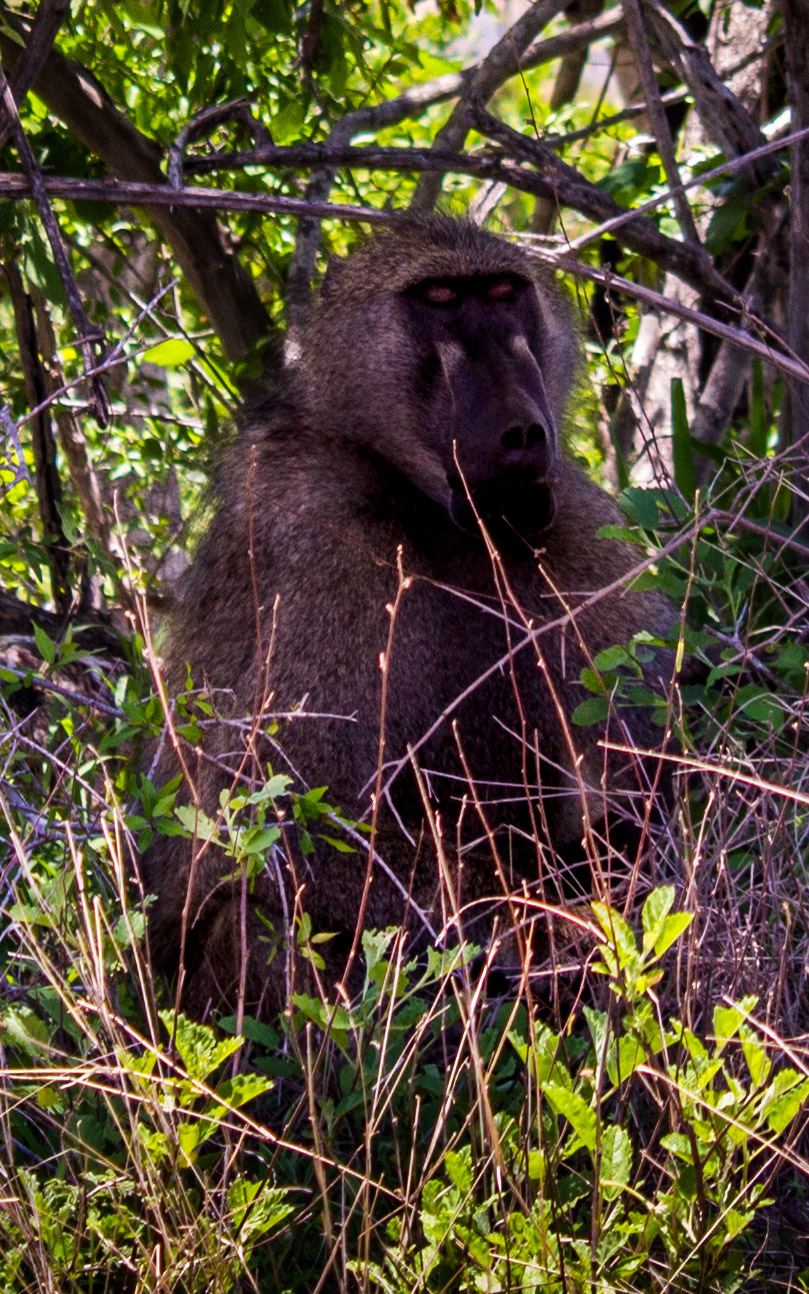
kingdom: Animalia
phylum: Chordata
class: Mammalia
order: Primates
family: Cercopithecidae
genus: Papio
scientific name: Papio ursinus
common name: Chacma baboon
